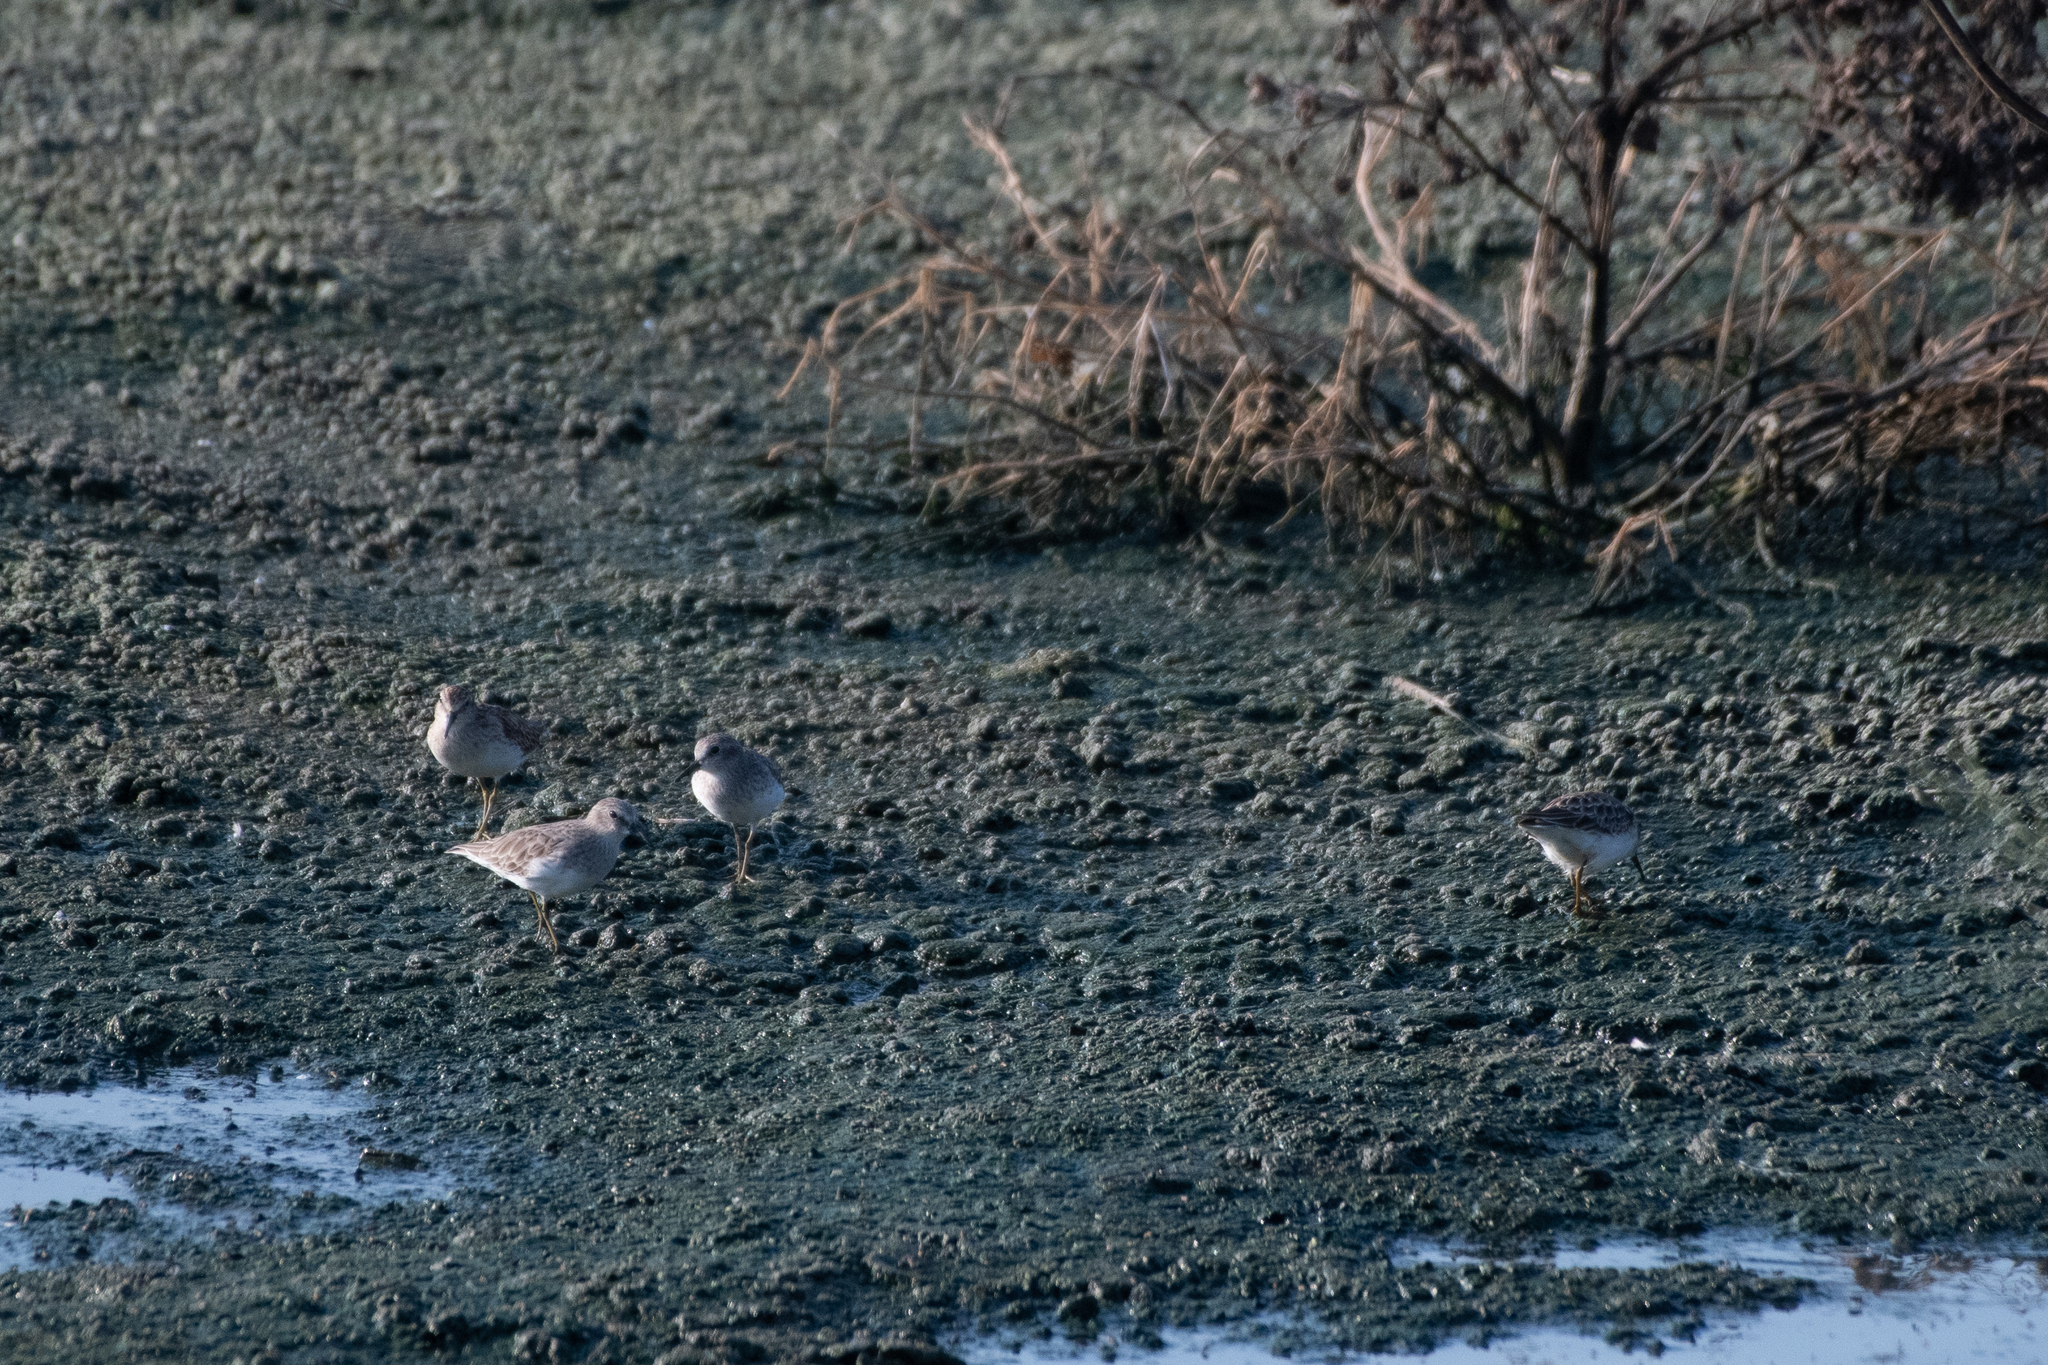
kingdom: Animalia
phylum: Chordata
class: Aves
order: Charadriiformes
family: Scolopacidae
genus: Calidris
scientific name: Calidris minutilla
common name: Least sandpiper
